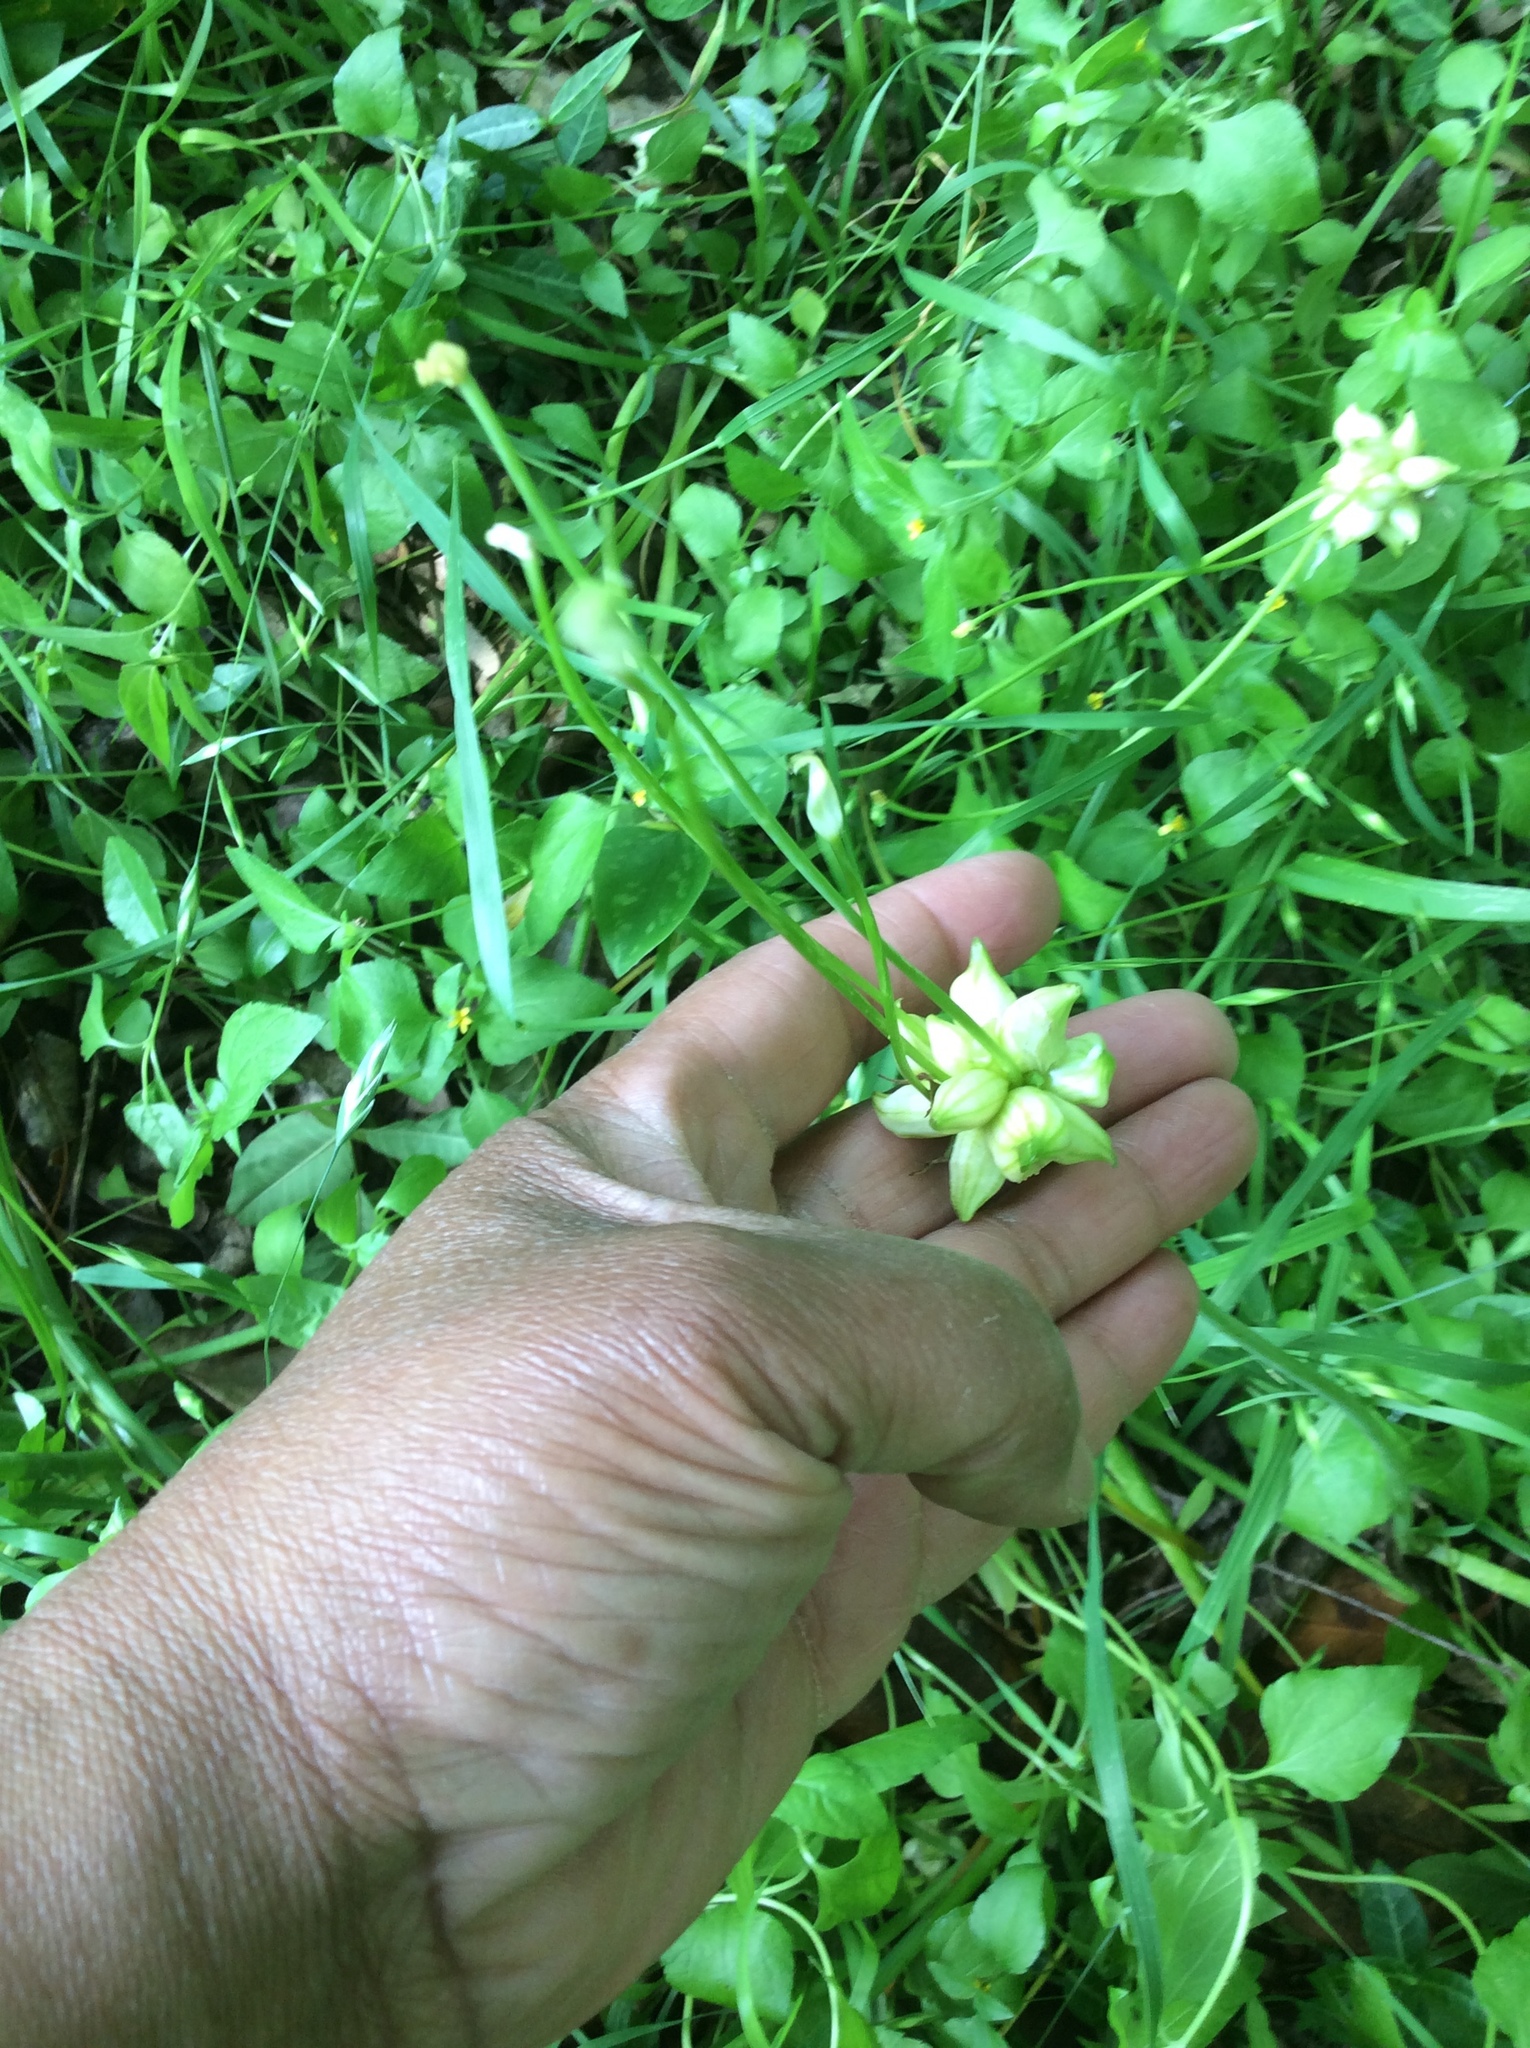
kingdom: Plantae
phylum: Tracheophyta
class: Liliopsida
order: Asparagales
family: Amaryllidaceae
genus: Allium
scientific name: Allium canadense
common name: Meadow garlic
